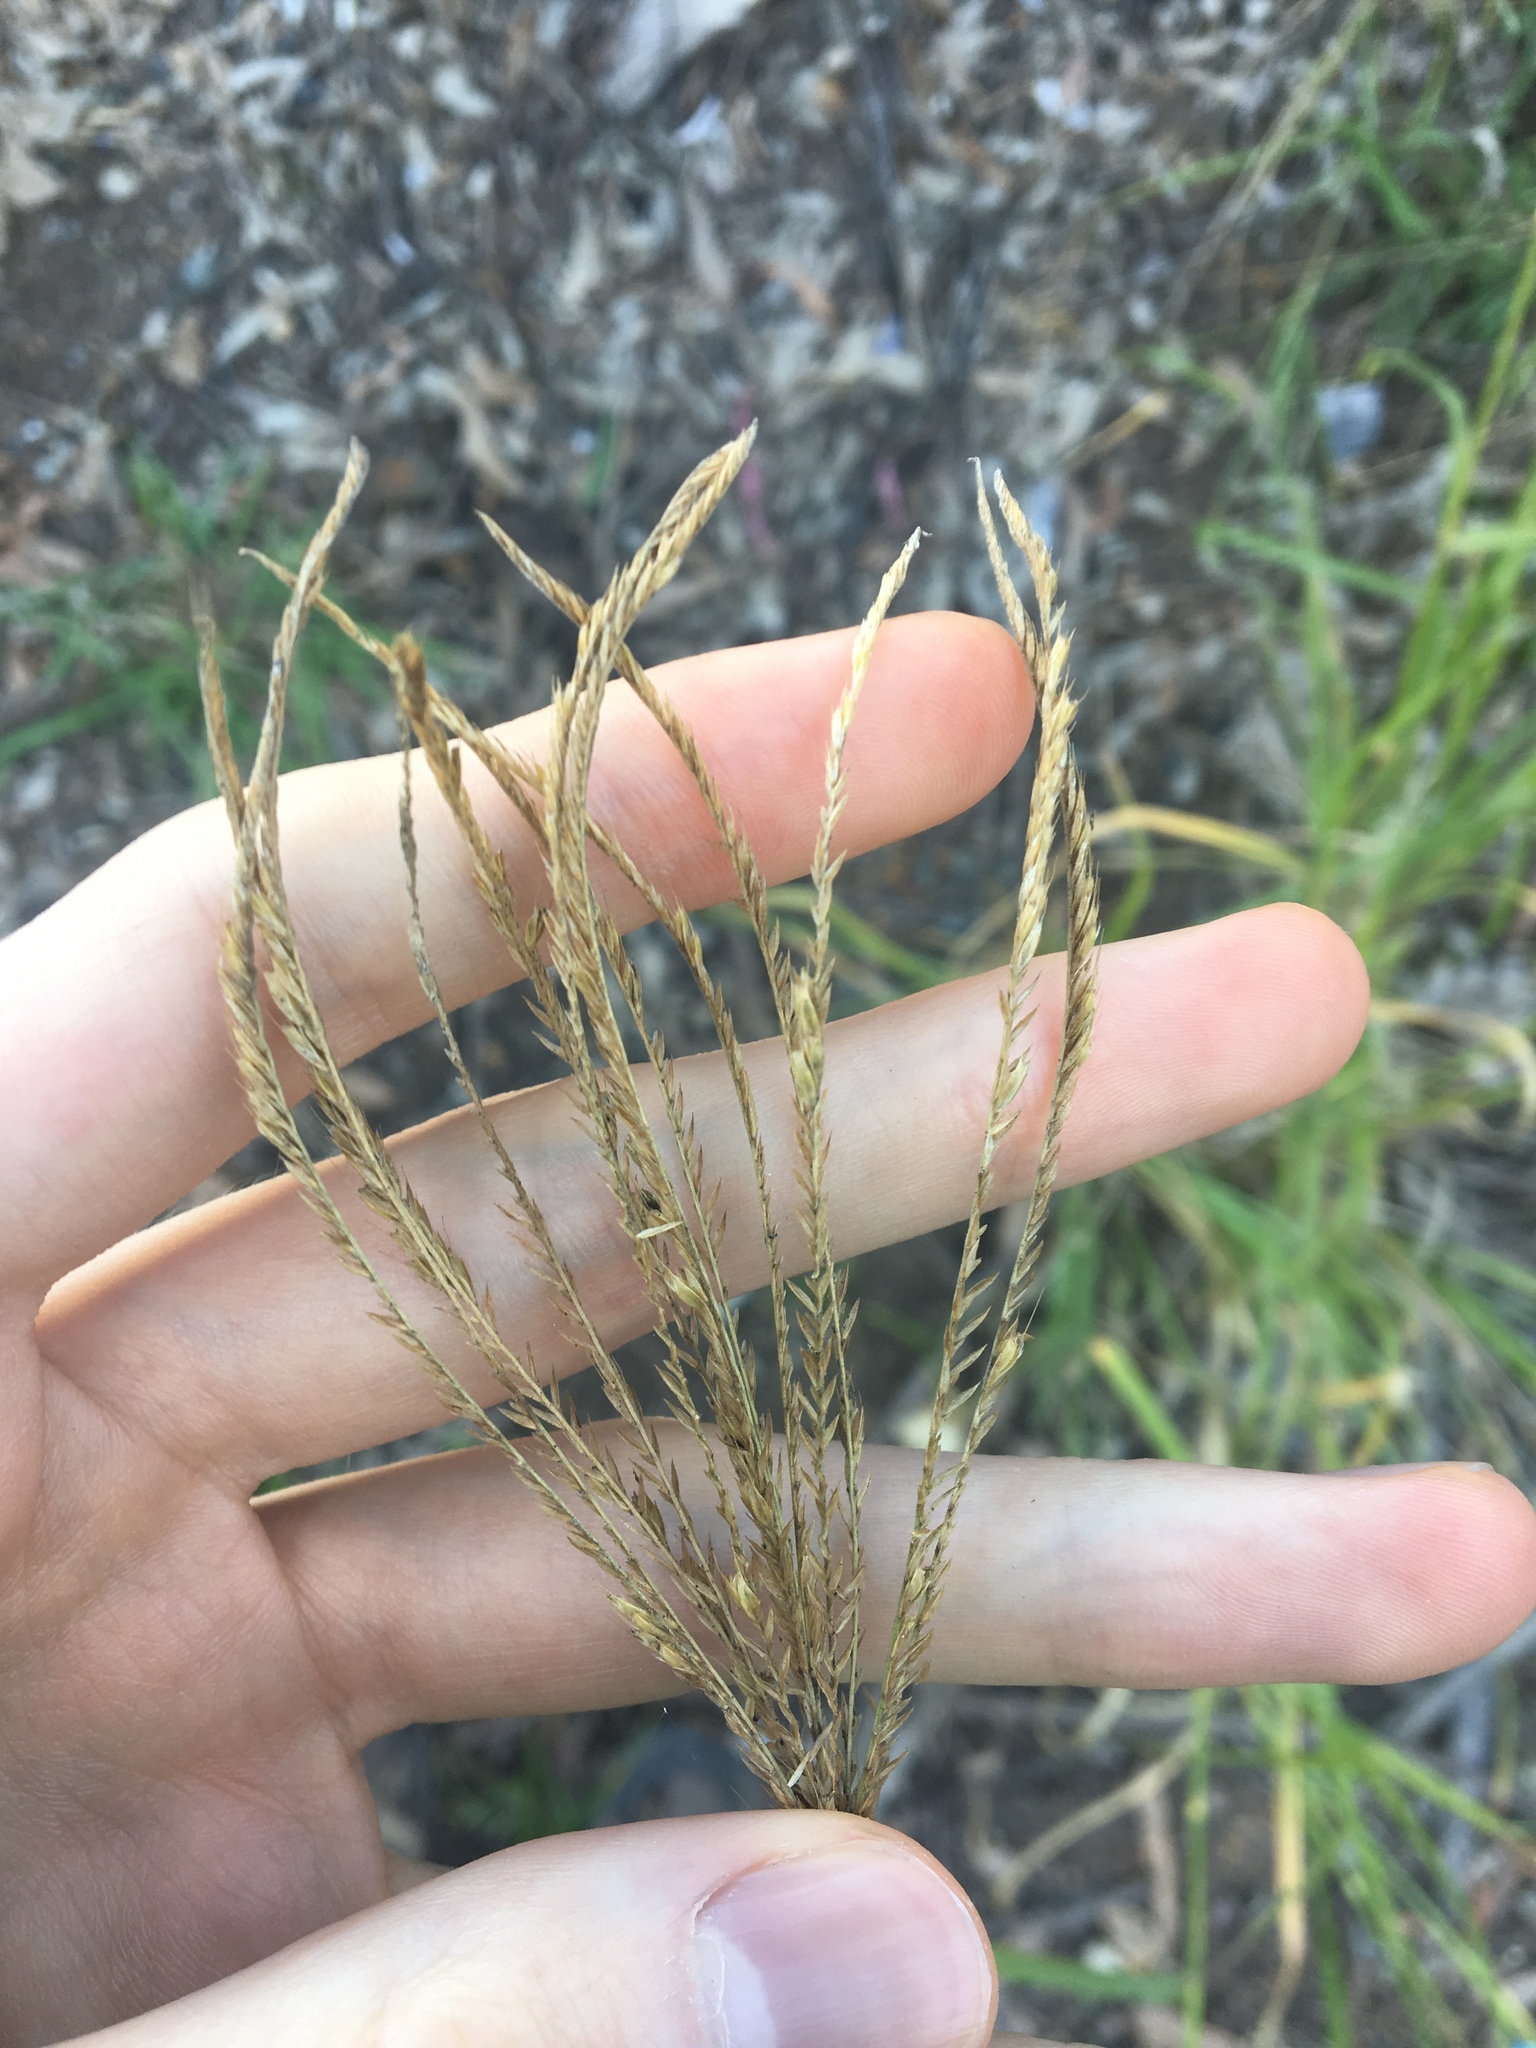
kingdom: Plantae
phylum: Tracheophyta
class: Liliopsida
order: Poales
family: Poaceae
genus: Chloris
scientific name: Chloris gayana
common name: Rhodes grass
